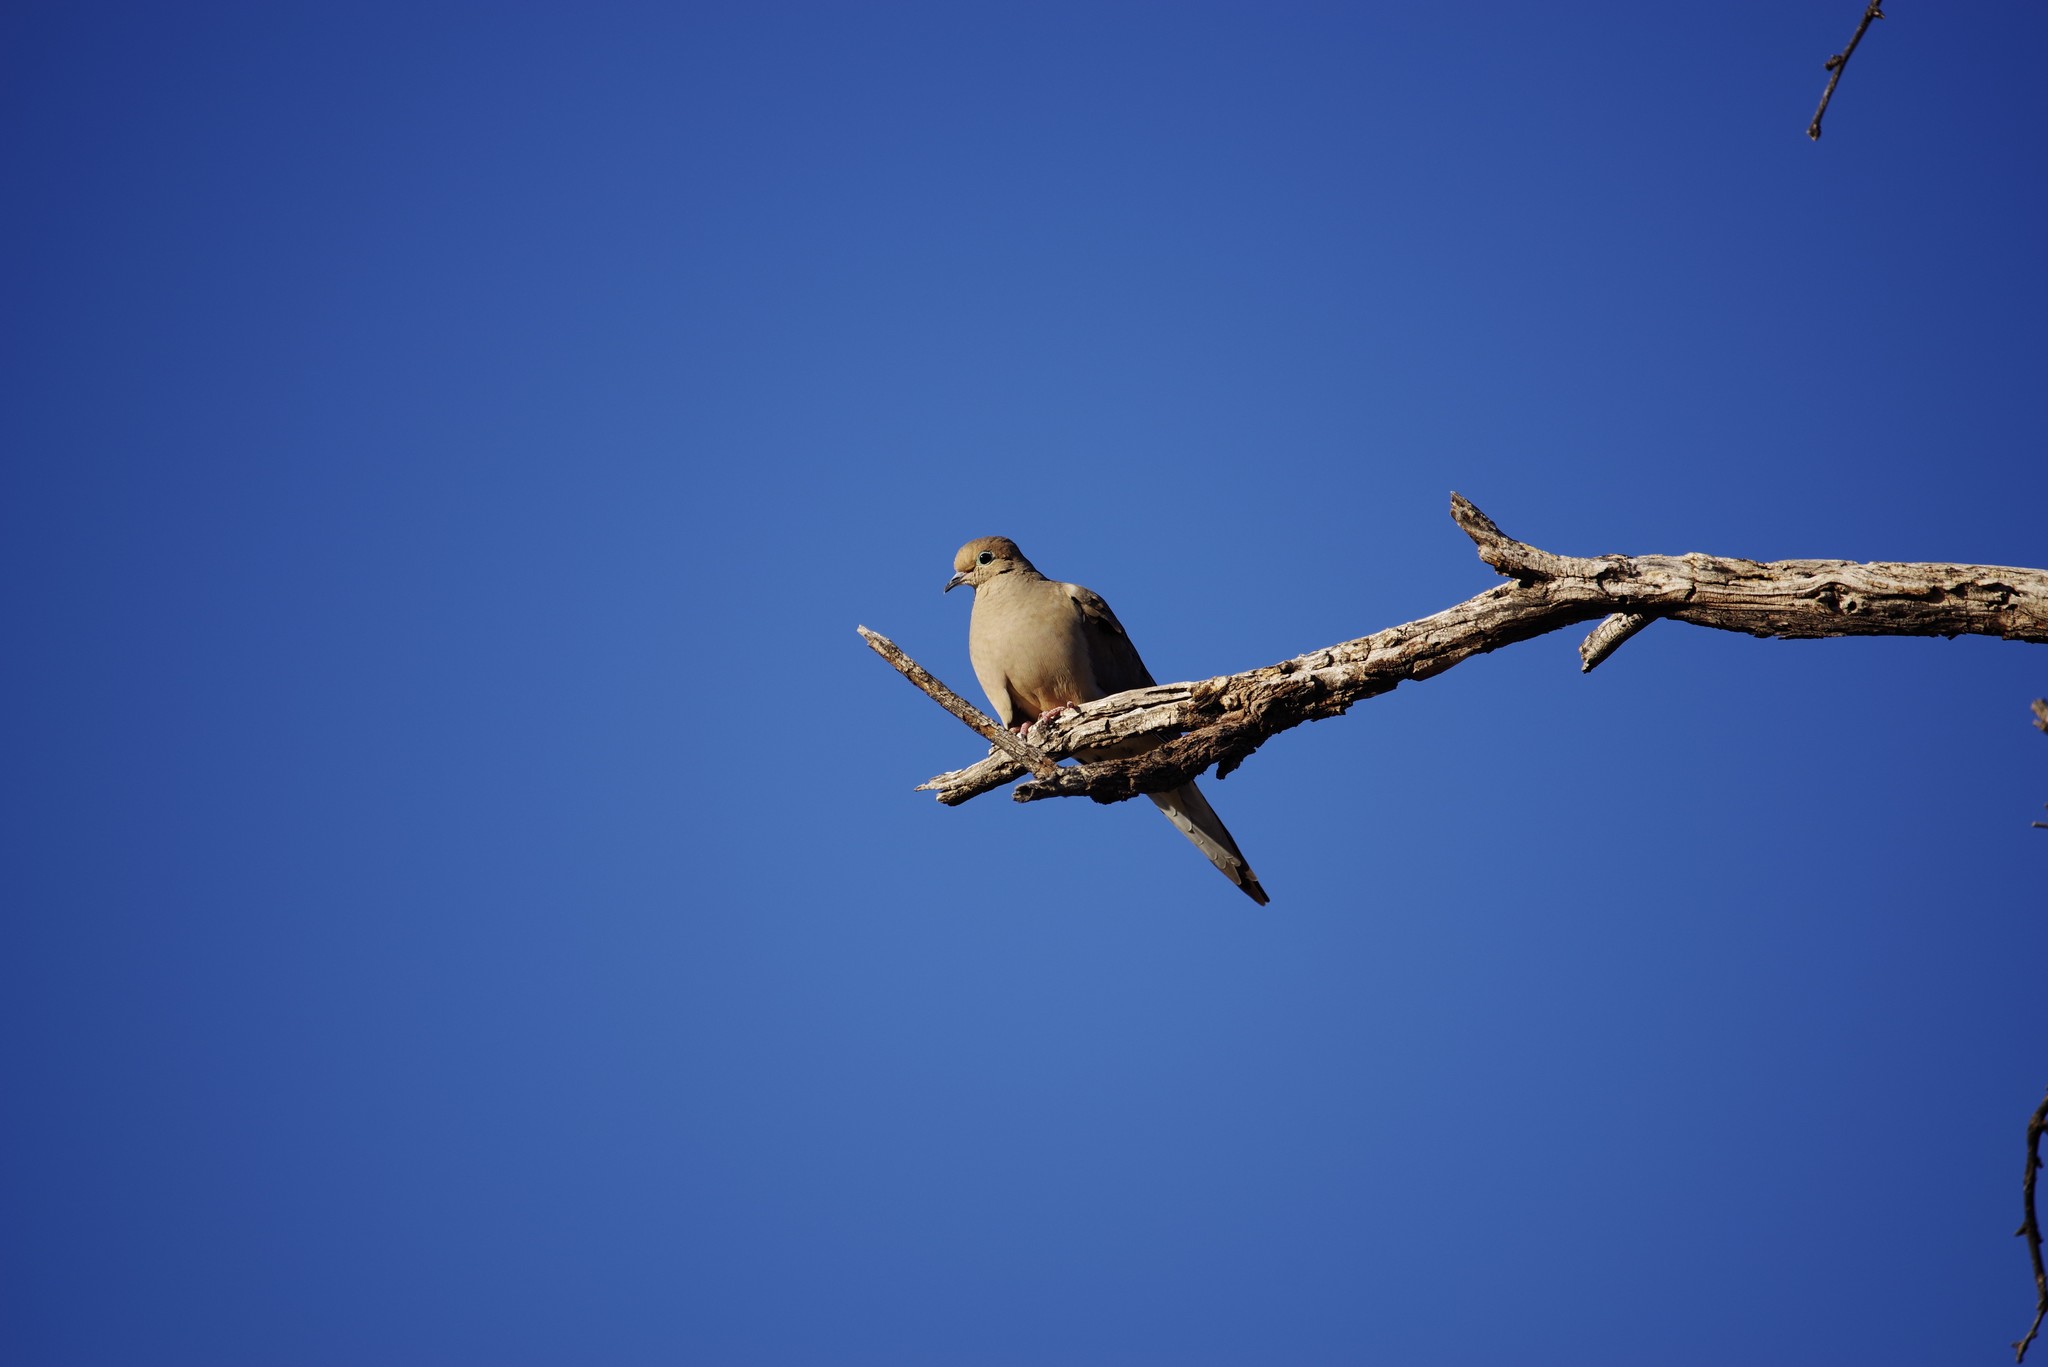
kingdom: Animalia
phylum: Chordata
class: Aves
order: Columbiformes
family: Columbidae
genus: Zenaida
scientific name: Zenaida macroura
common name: Mourning dove
